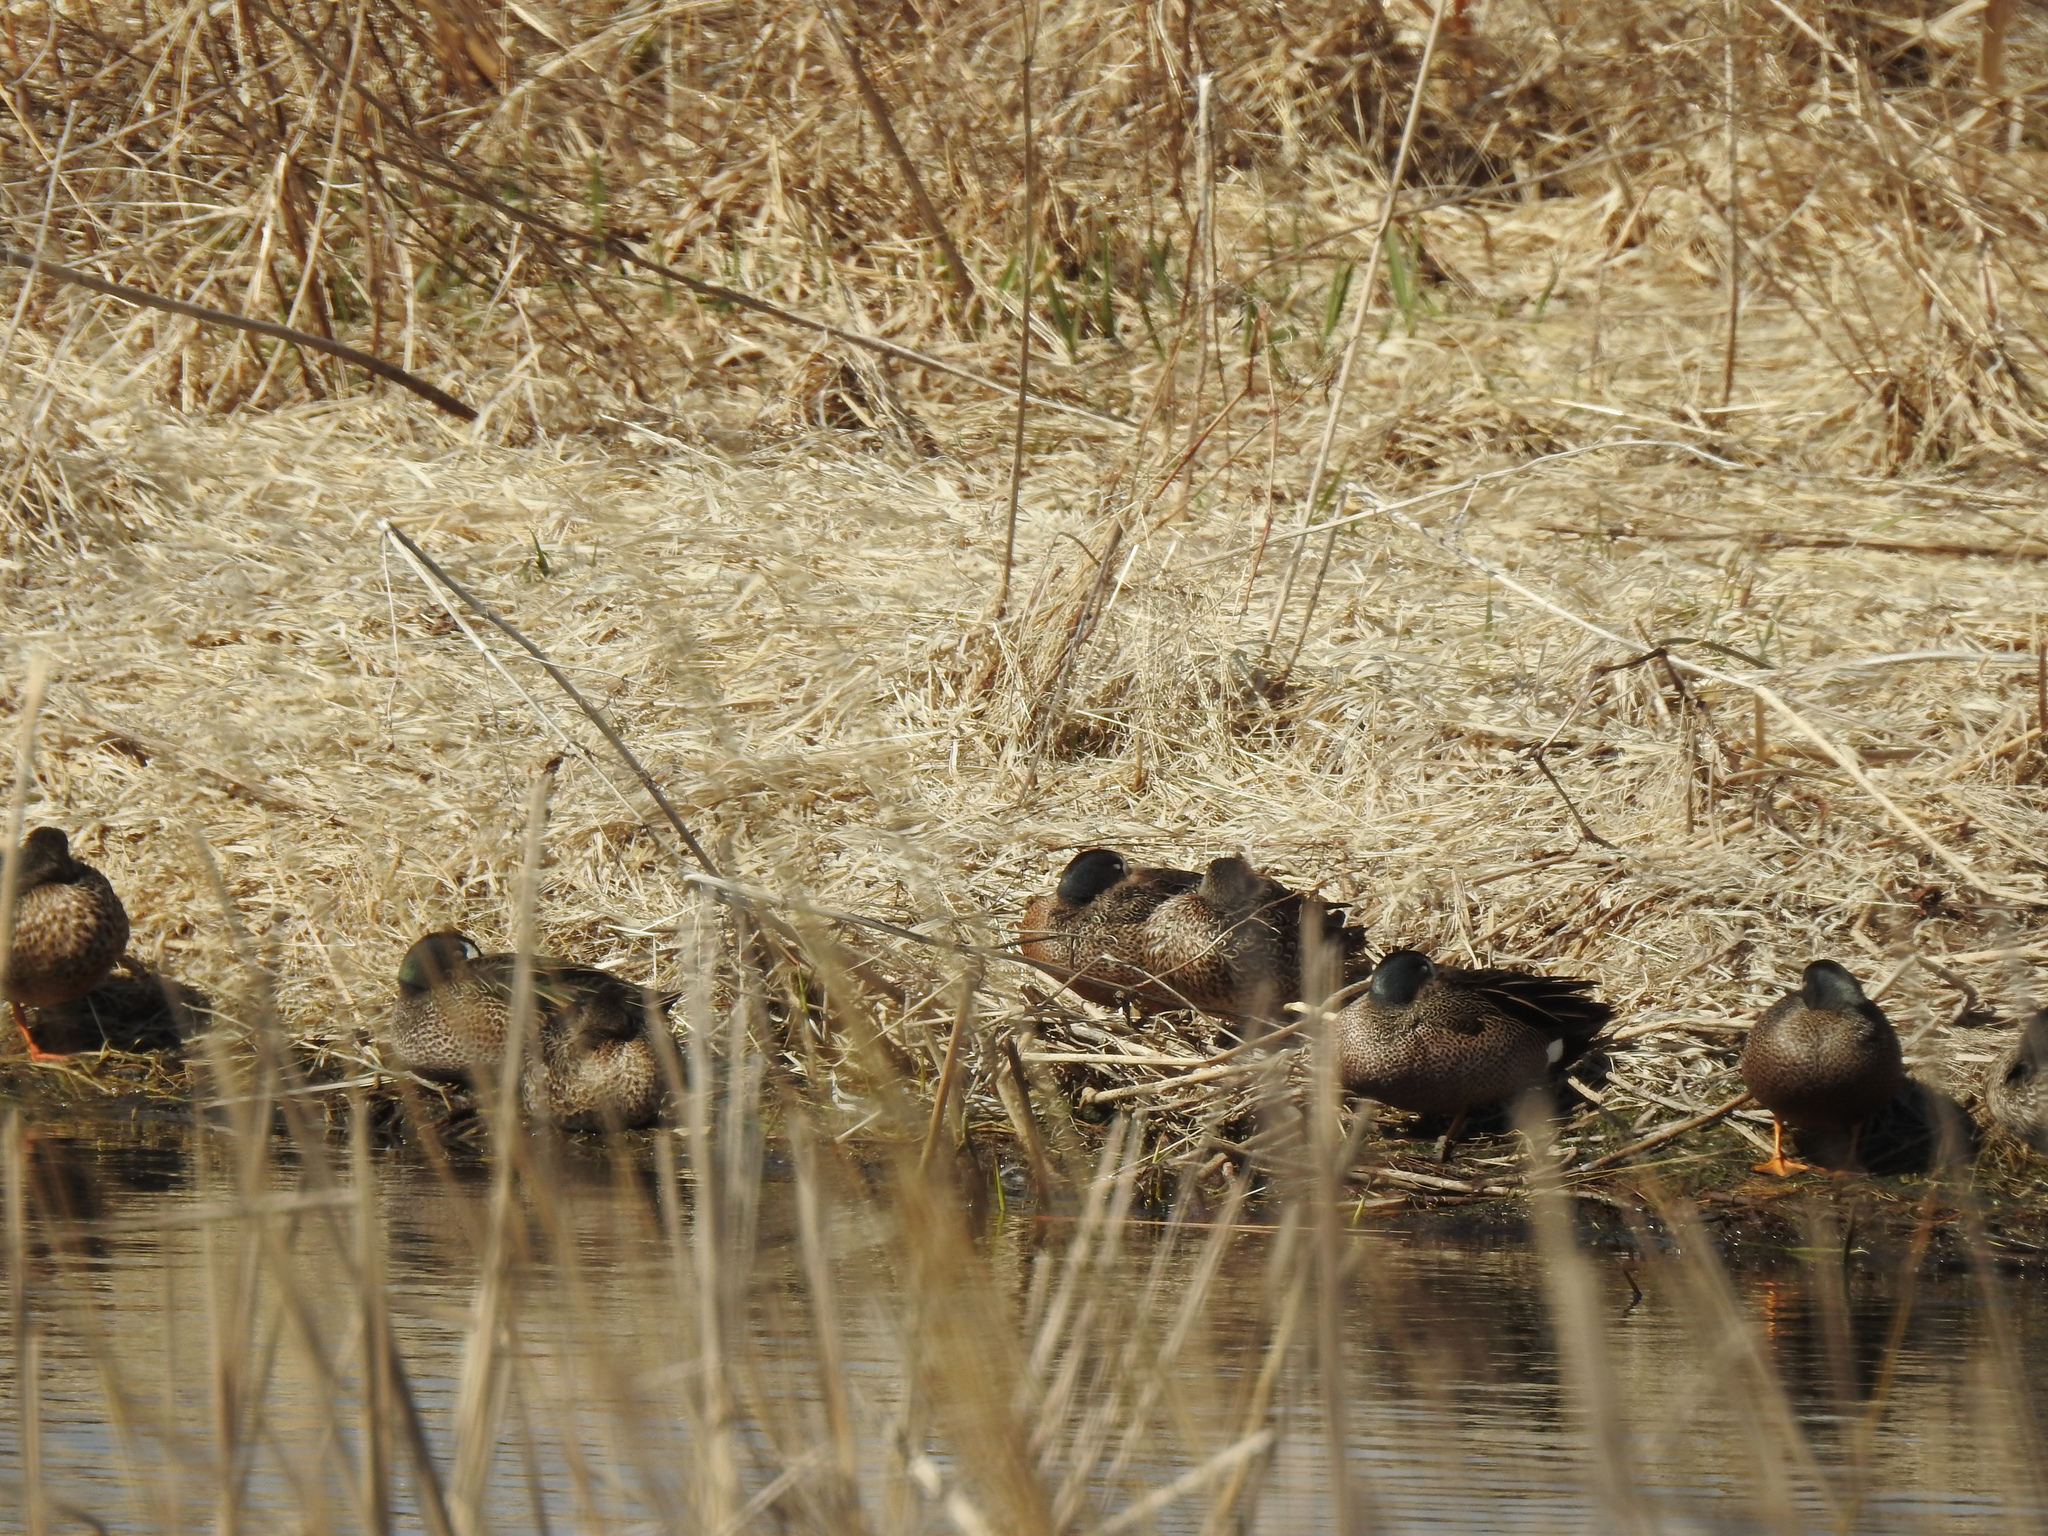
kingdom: Animalia
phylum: Chordata
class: Aves
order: Anseriformes
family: Anatidae
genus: Spatula
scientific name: Spatula discors
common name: Blue-winged teal
